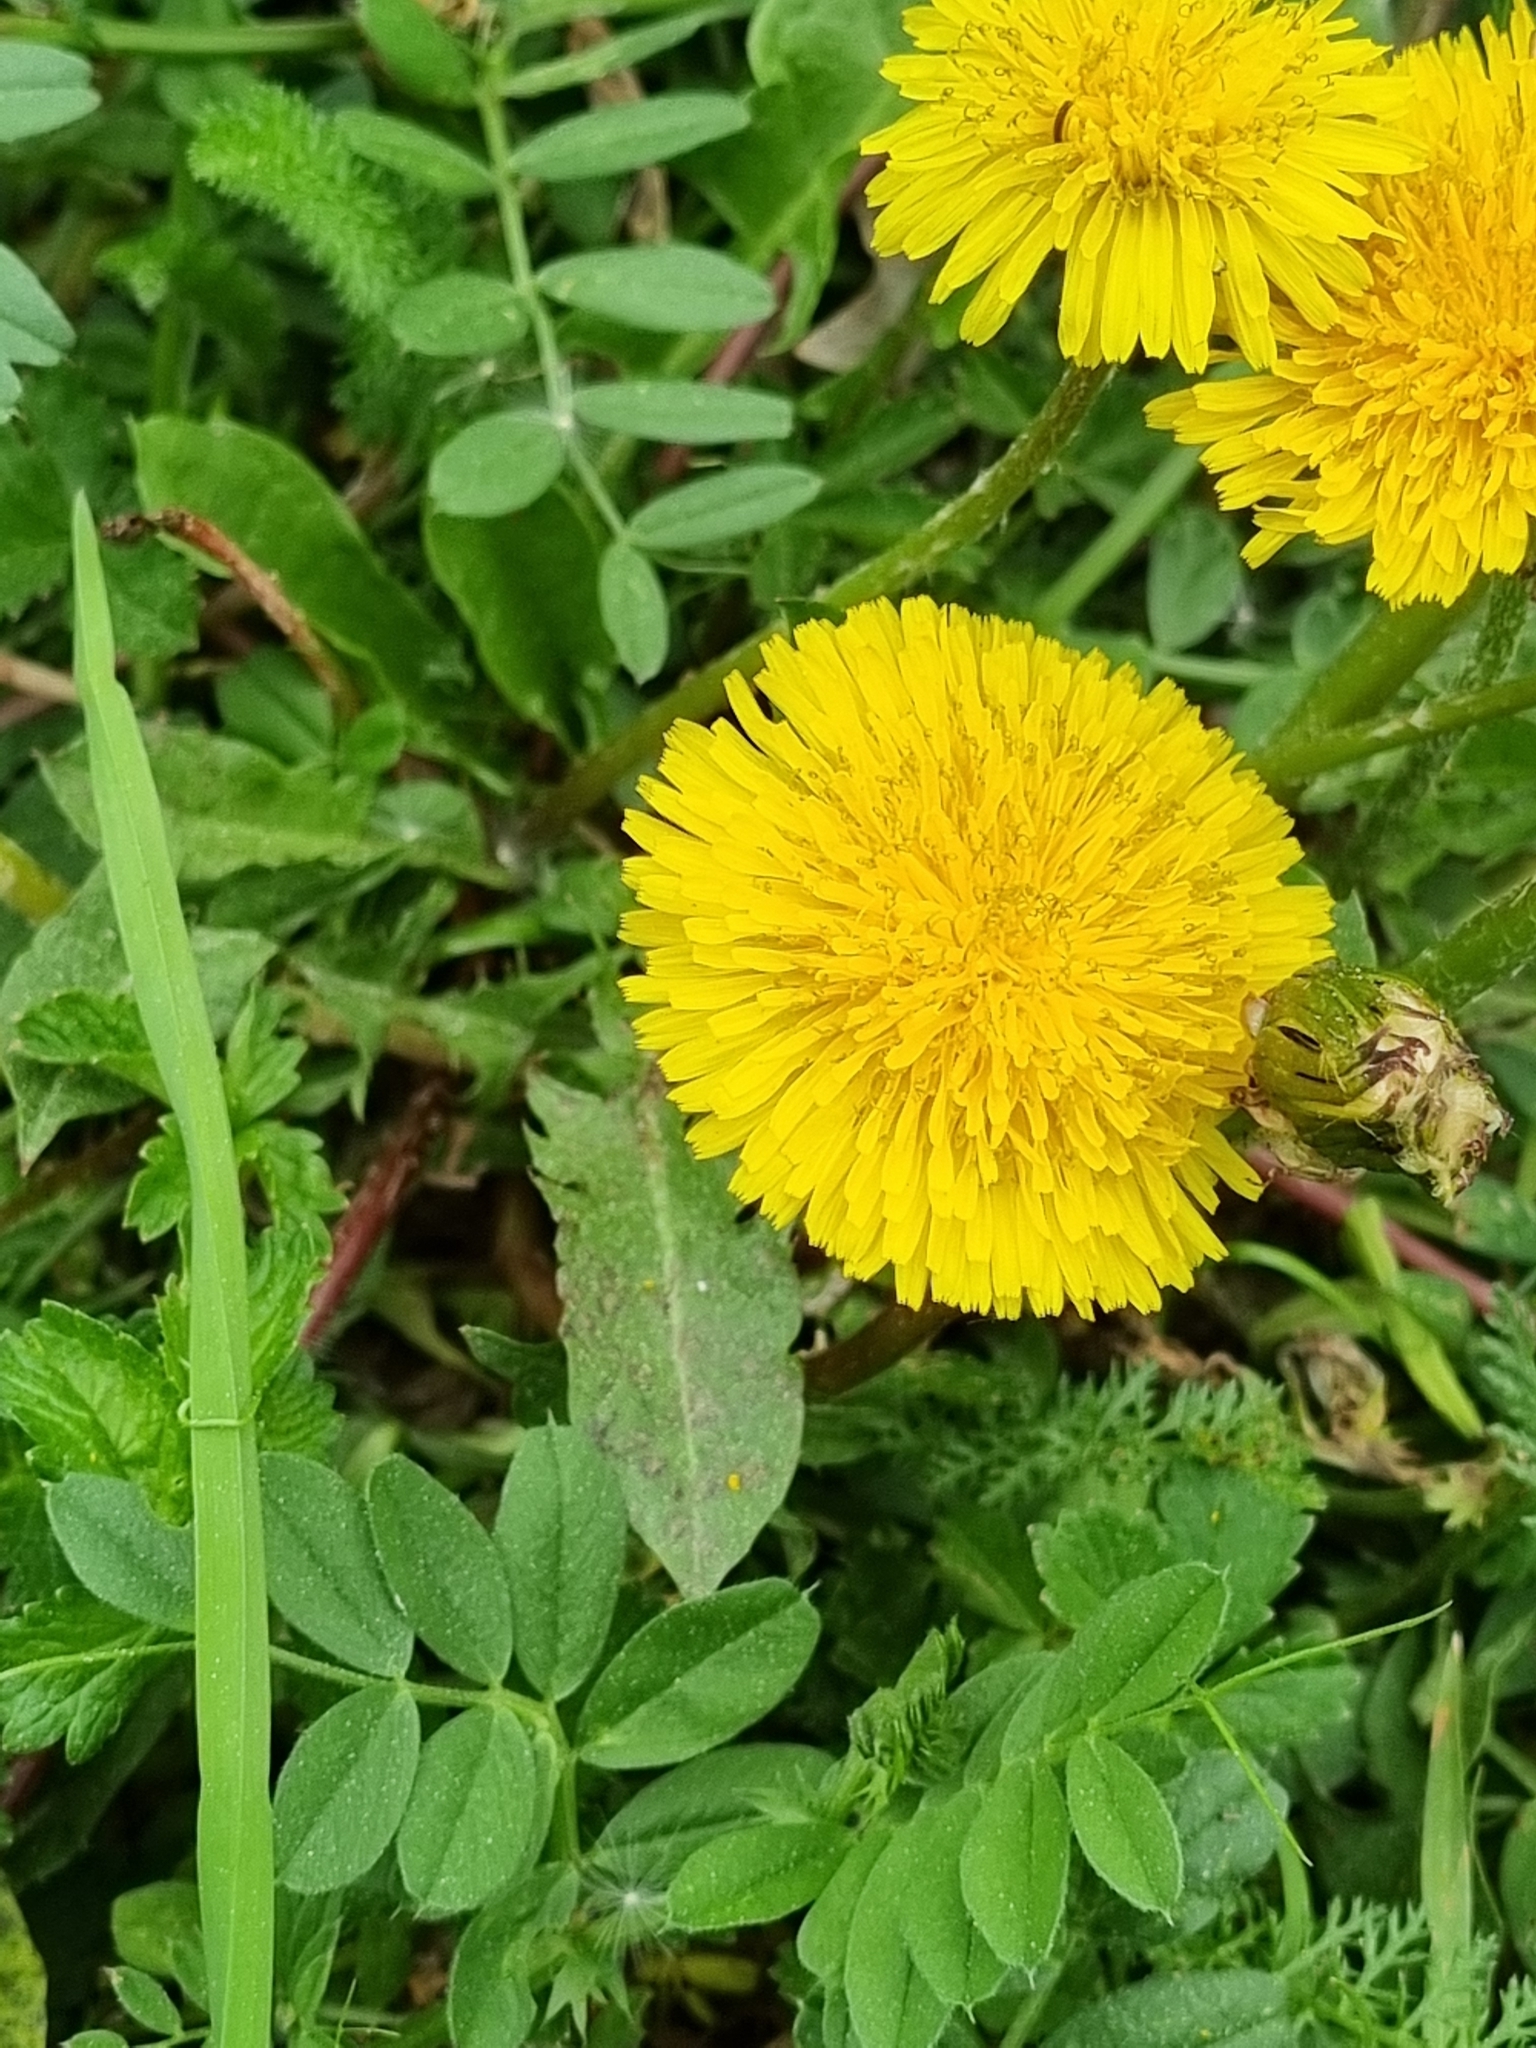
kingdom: Plantae
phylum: Tracheophyta
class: Magnoliopsida
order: Asterales
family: Asteraceae
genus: Taraxacum
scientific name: Taraxacum officinale
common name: Common dandelion
